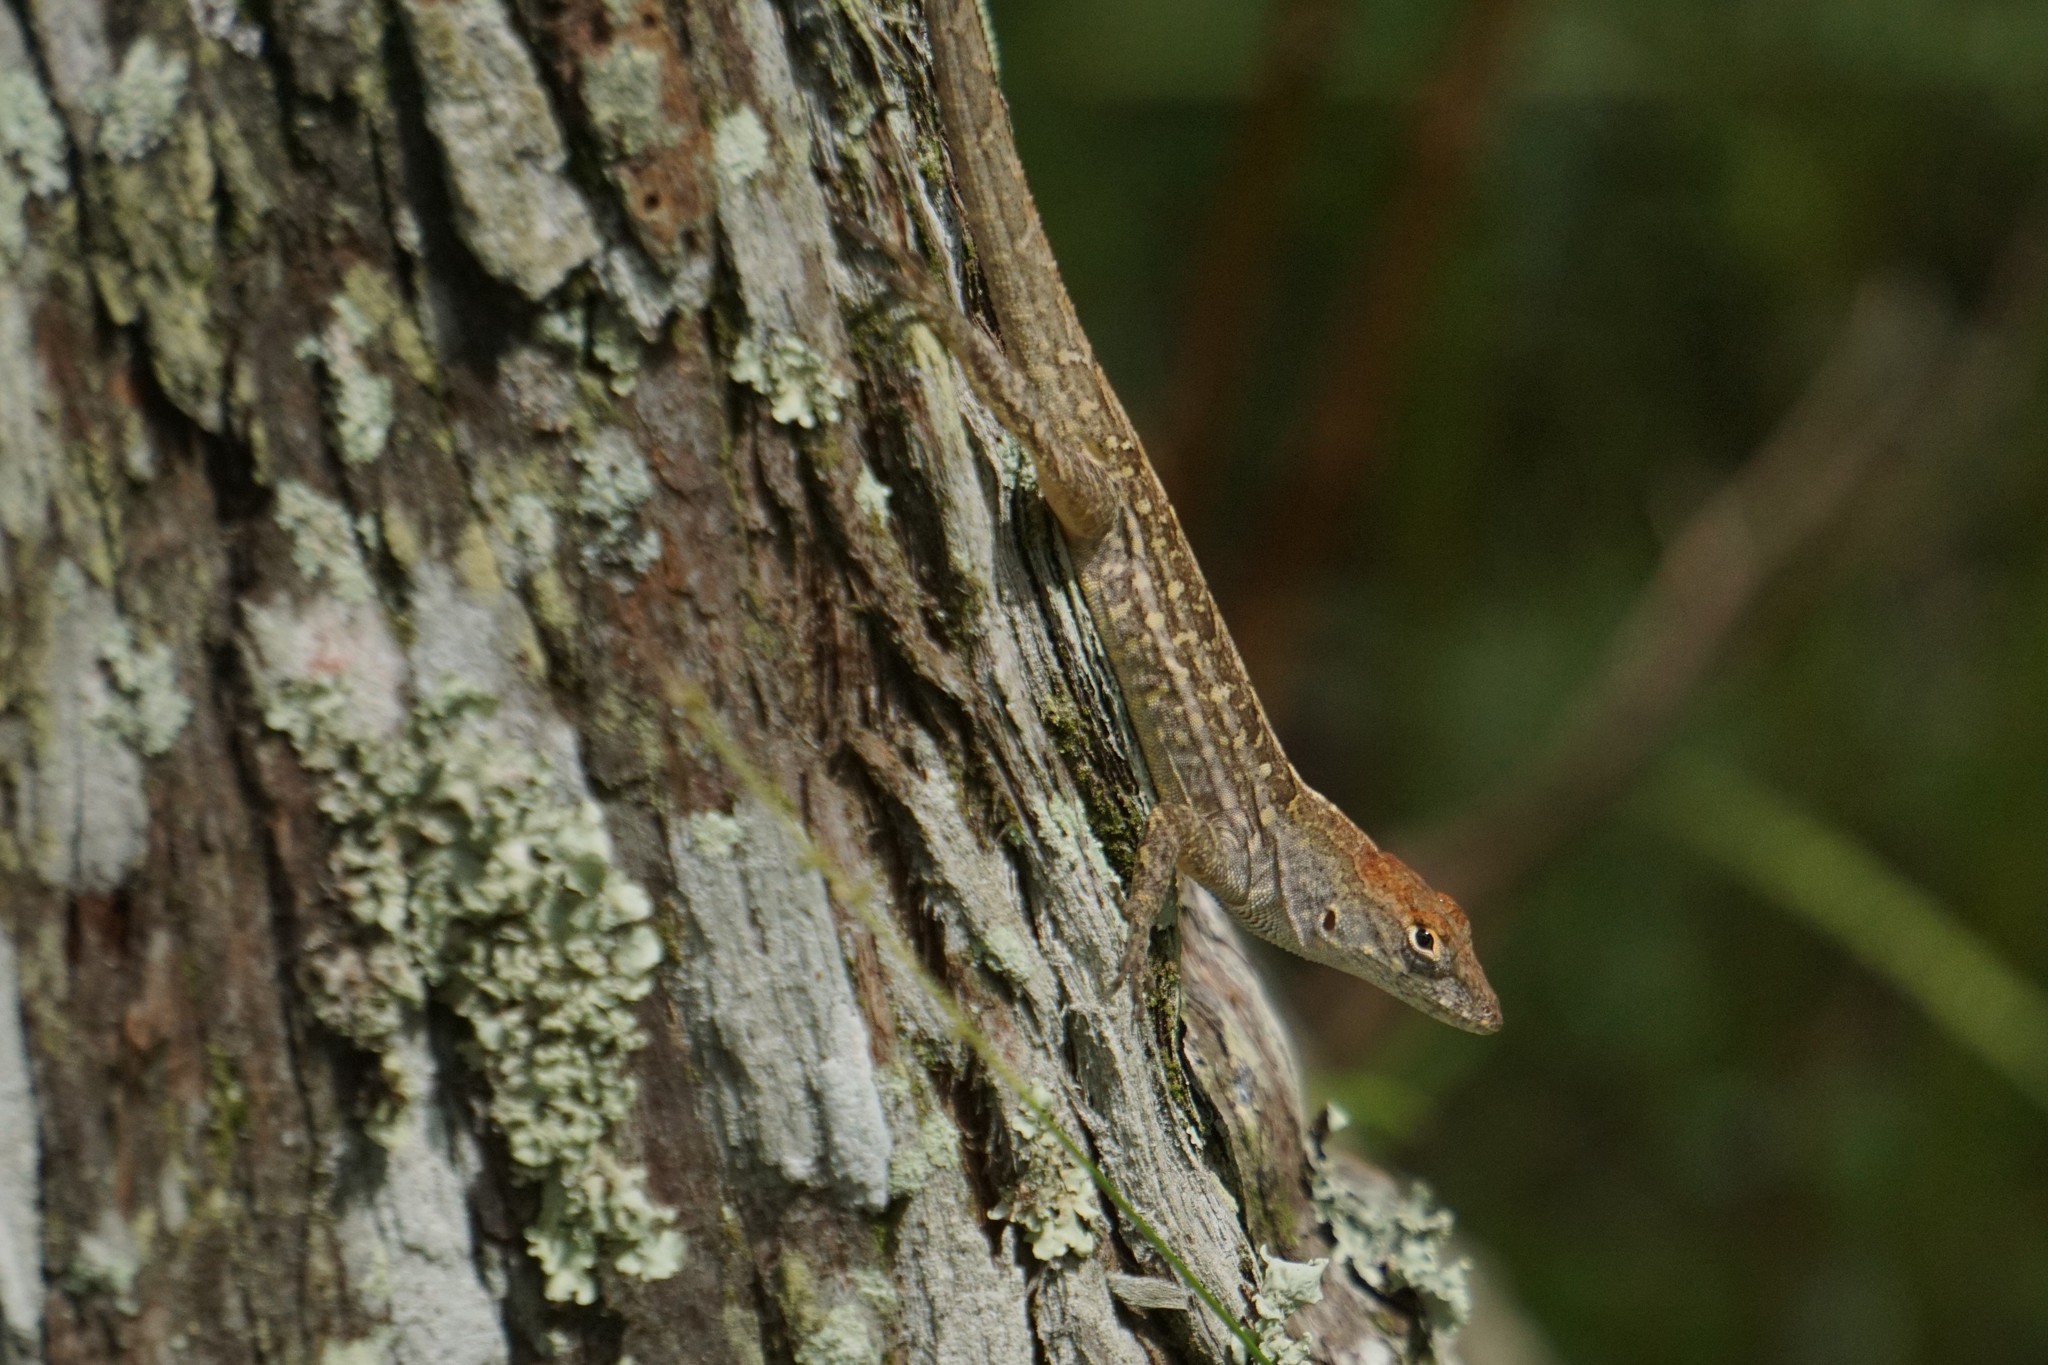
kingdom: Animalia
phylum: Chordata
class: Squamata
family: Dactyloidae
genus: Anolis
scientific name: Anolis sagrei
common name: Brown anole
